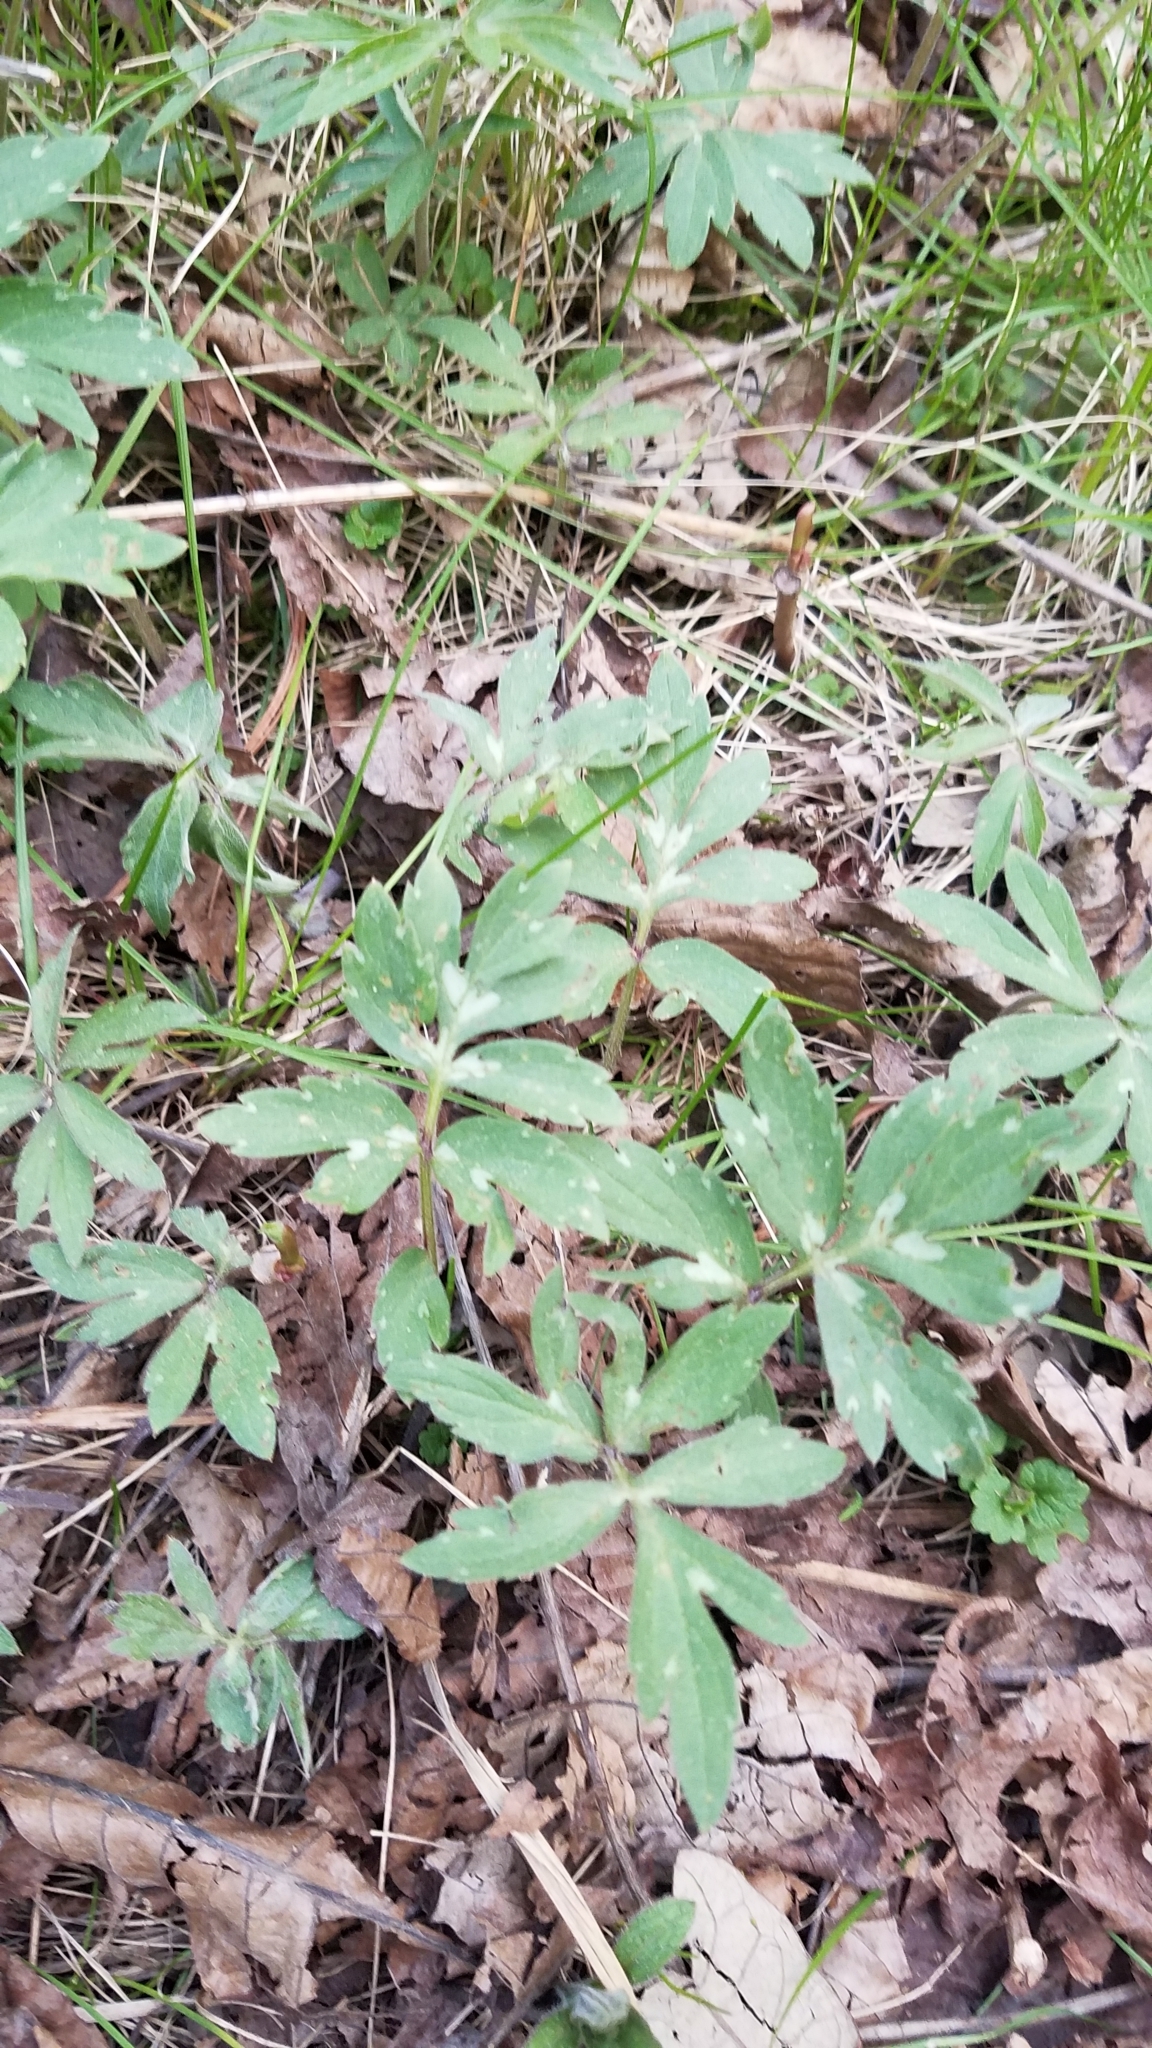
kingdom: Plantae
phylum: Tracheophyta
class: Magnoliopsida
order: Boraginales
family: Hydrophyllaceae
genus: Hydrophyllum
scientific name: Hydrophyllum virginianum
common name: Virginia waterleaf
